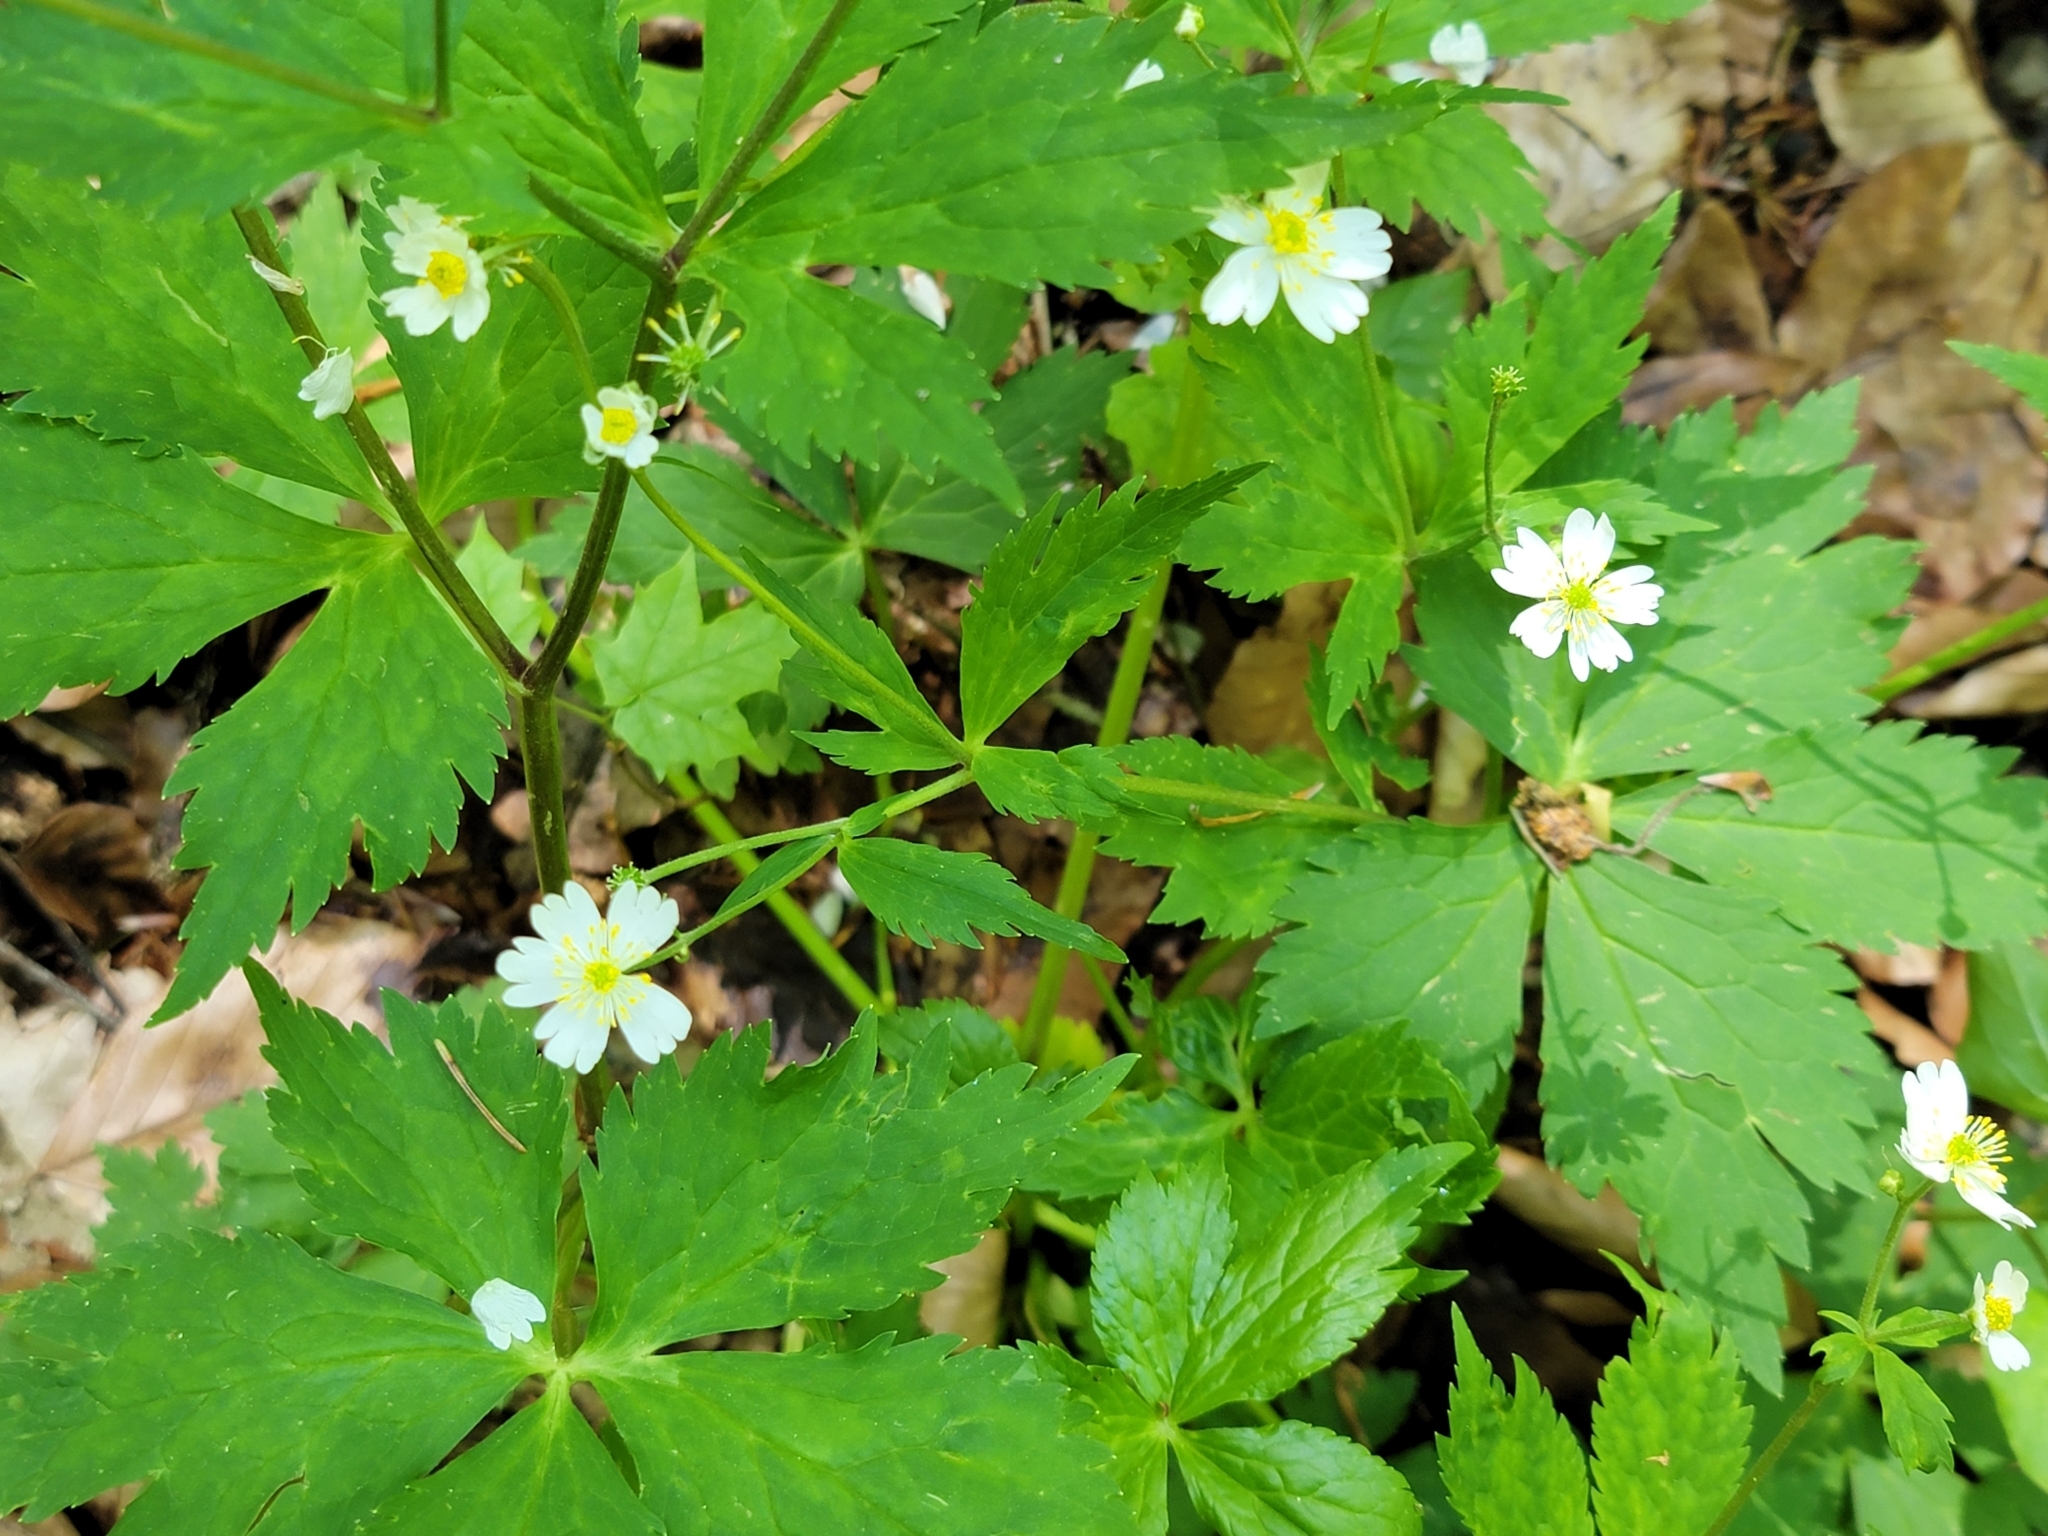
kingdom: Plantae
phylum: Tracheophyta
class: Magnoliopsida
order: Ranunculales
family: Ranunculaceae
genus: Ranunculus
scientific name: Ranunculus aconitifolius
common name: Aconite-leaved buttercup
